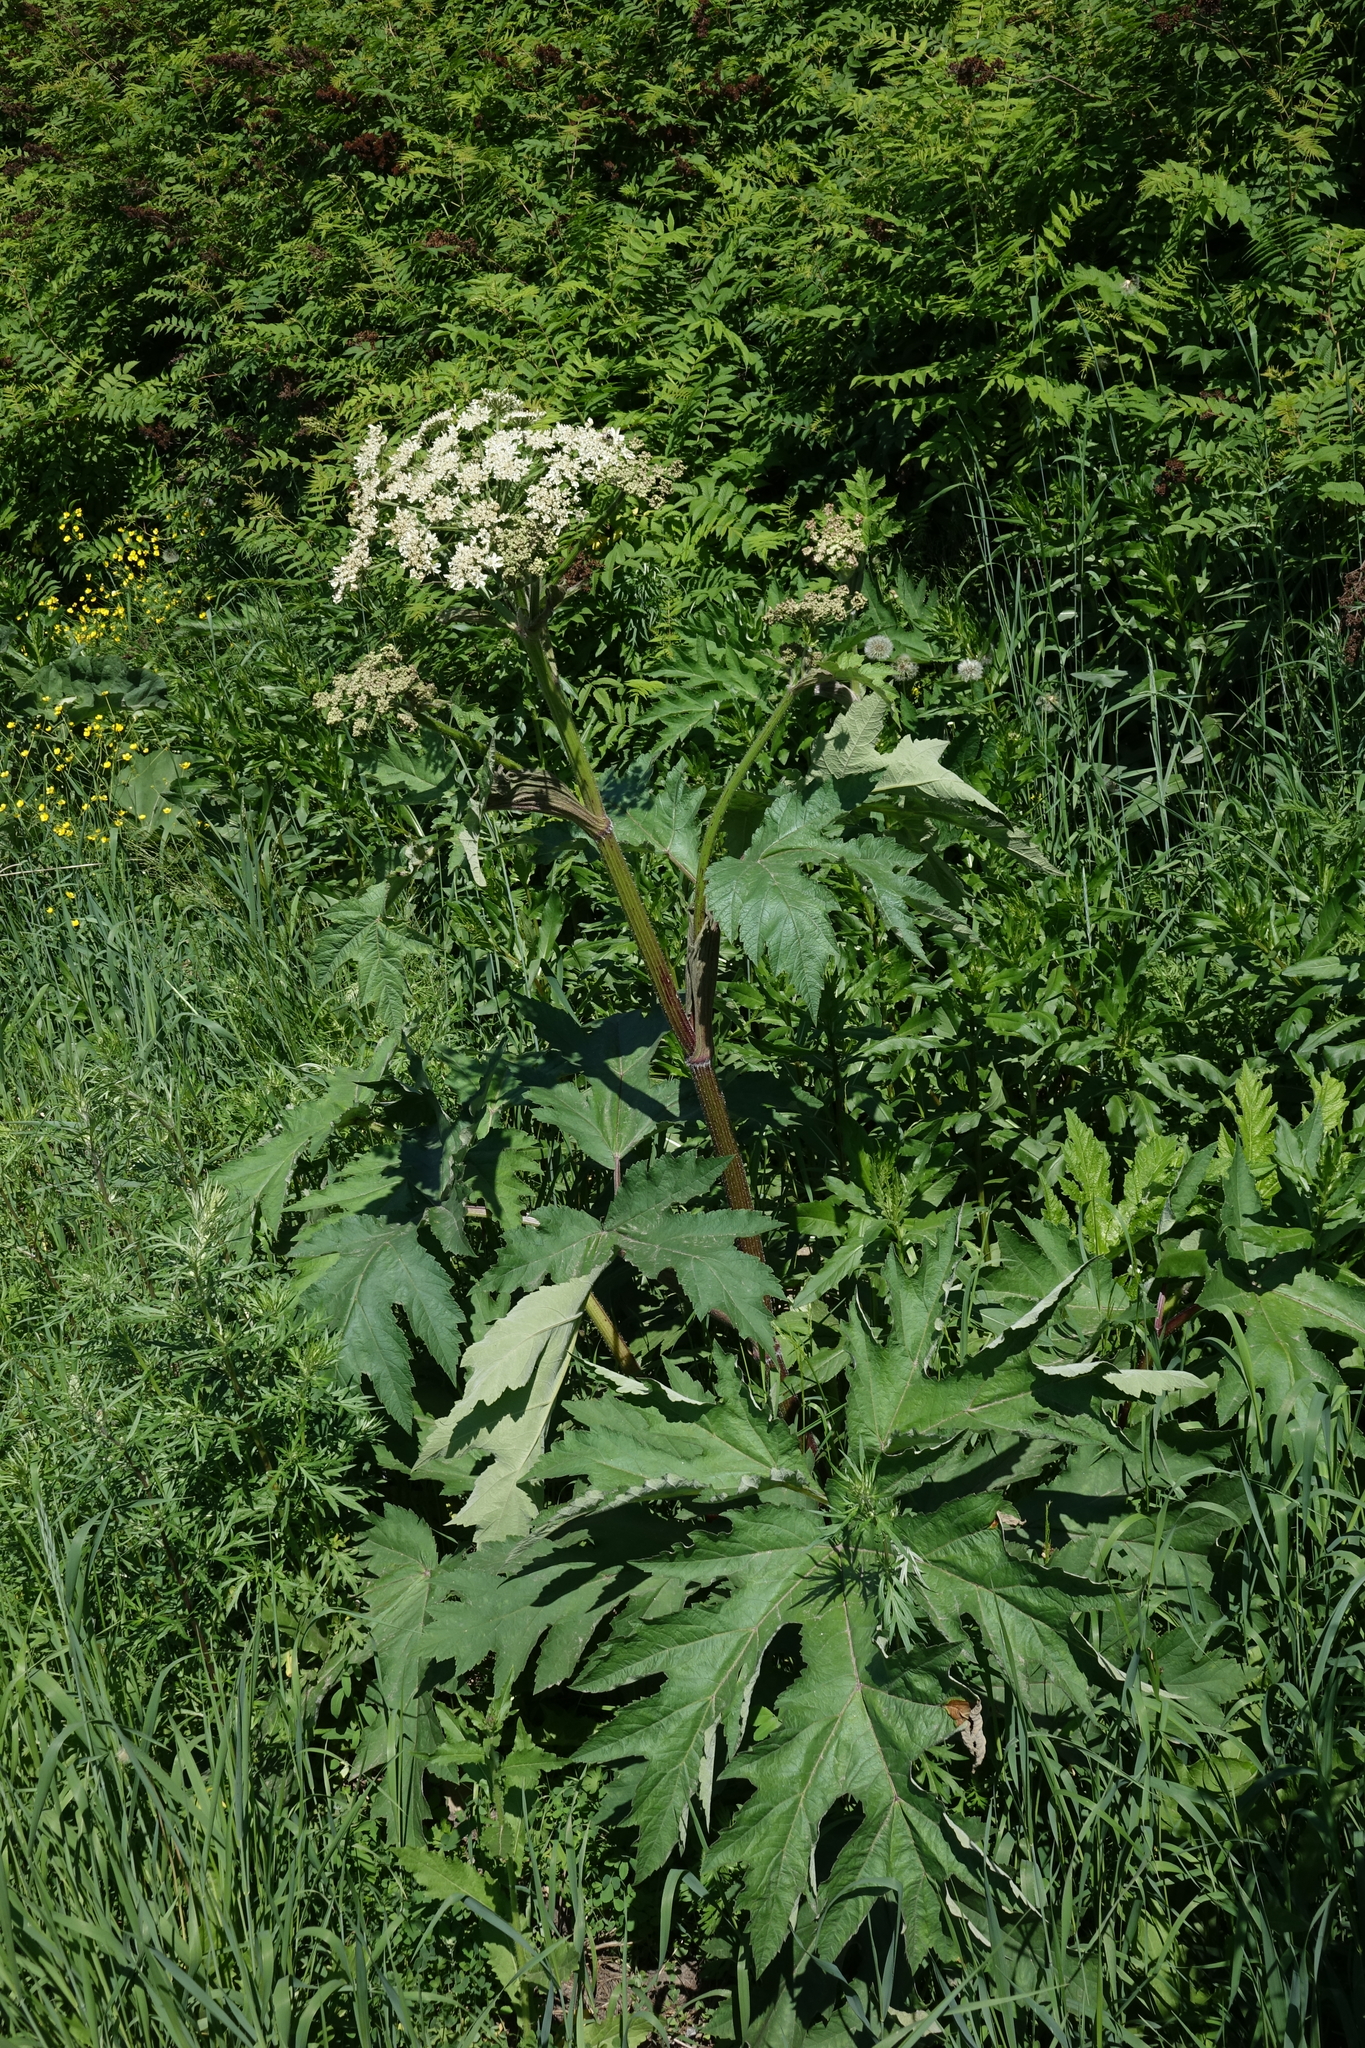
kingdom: Plantae
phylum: Tracheophyta
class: Magnoliopsida
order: Apiales
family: Apiaceae
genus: Heracleum
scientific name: Heracleum dissectum
